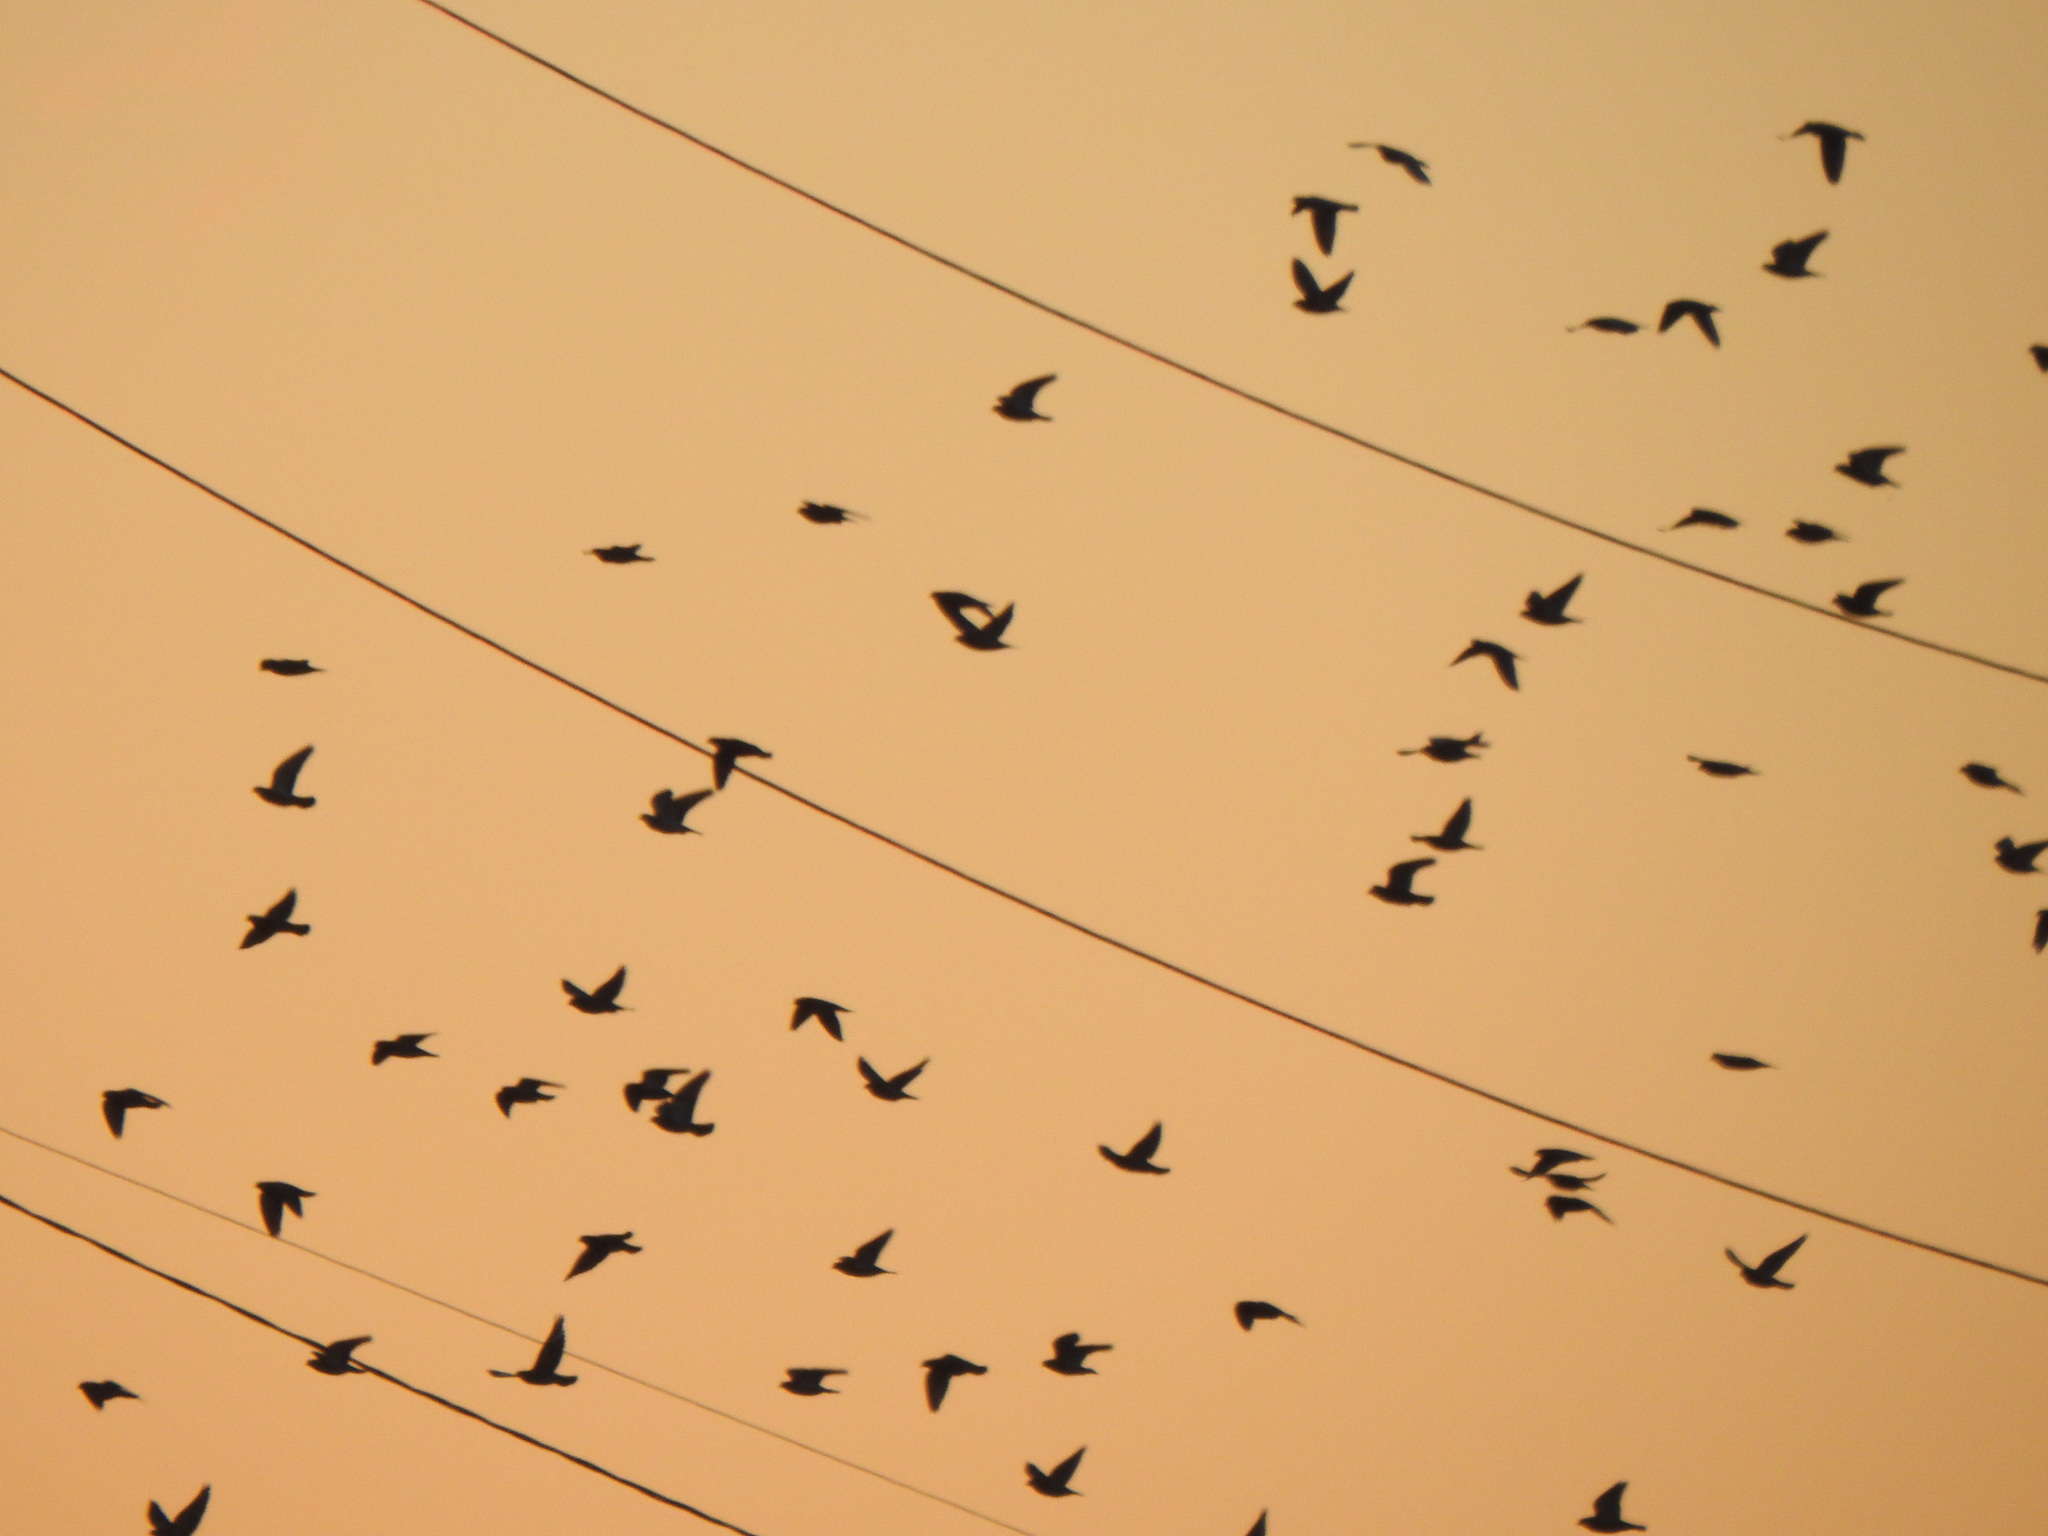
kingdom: Animalia
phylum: Chordata
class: Aves
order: Columbiformes
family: Columbidae
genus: Columba
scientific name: Columba livia
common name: Rock pigeon
